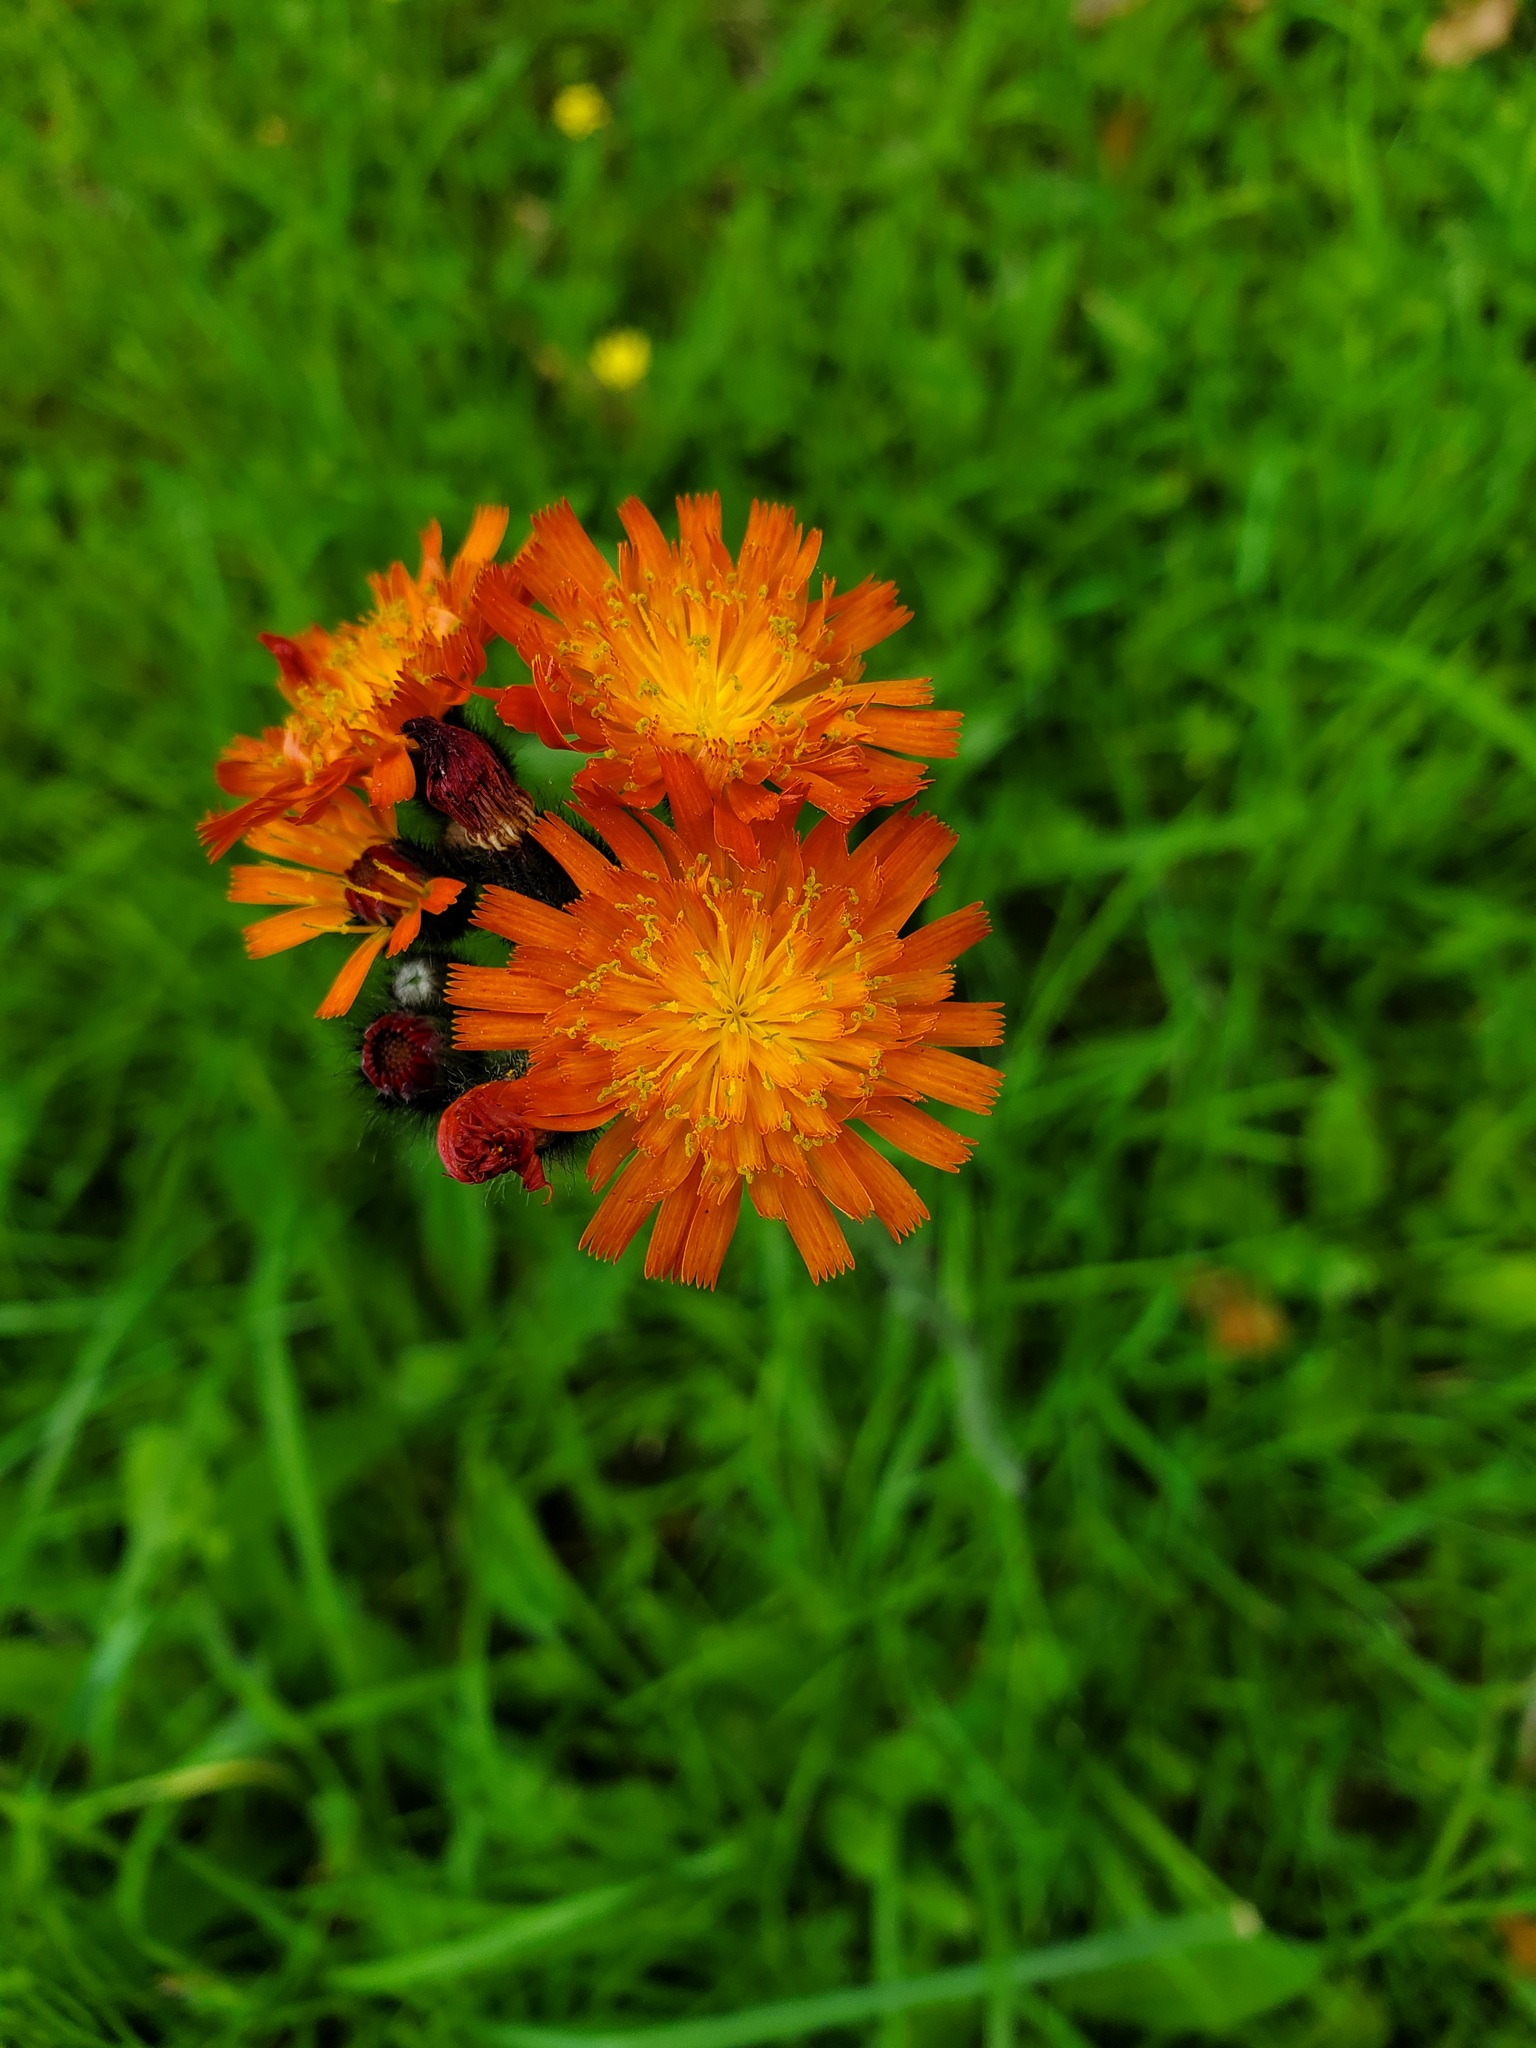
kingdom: Plantae
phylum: Tracheophyta
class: Magnoliopsida
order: Asterales
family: Asteraceae
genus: Pilosella
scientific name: Pilosella aurantiaca
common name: Fox-and-cubs
